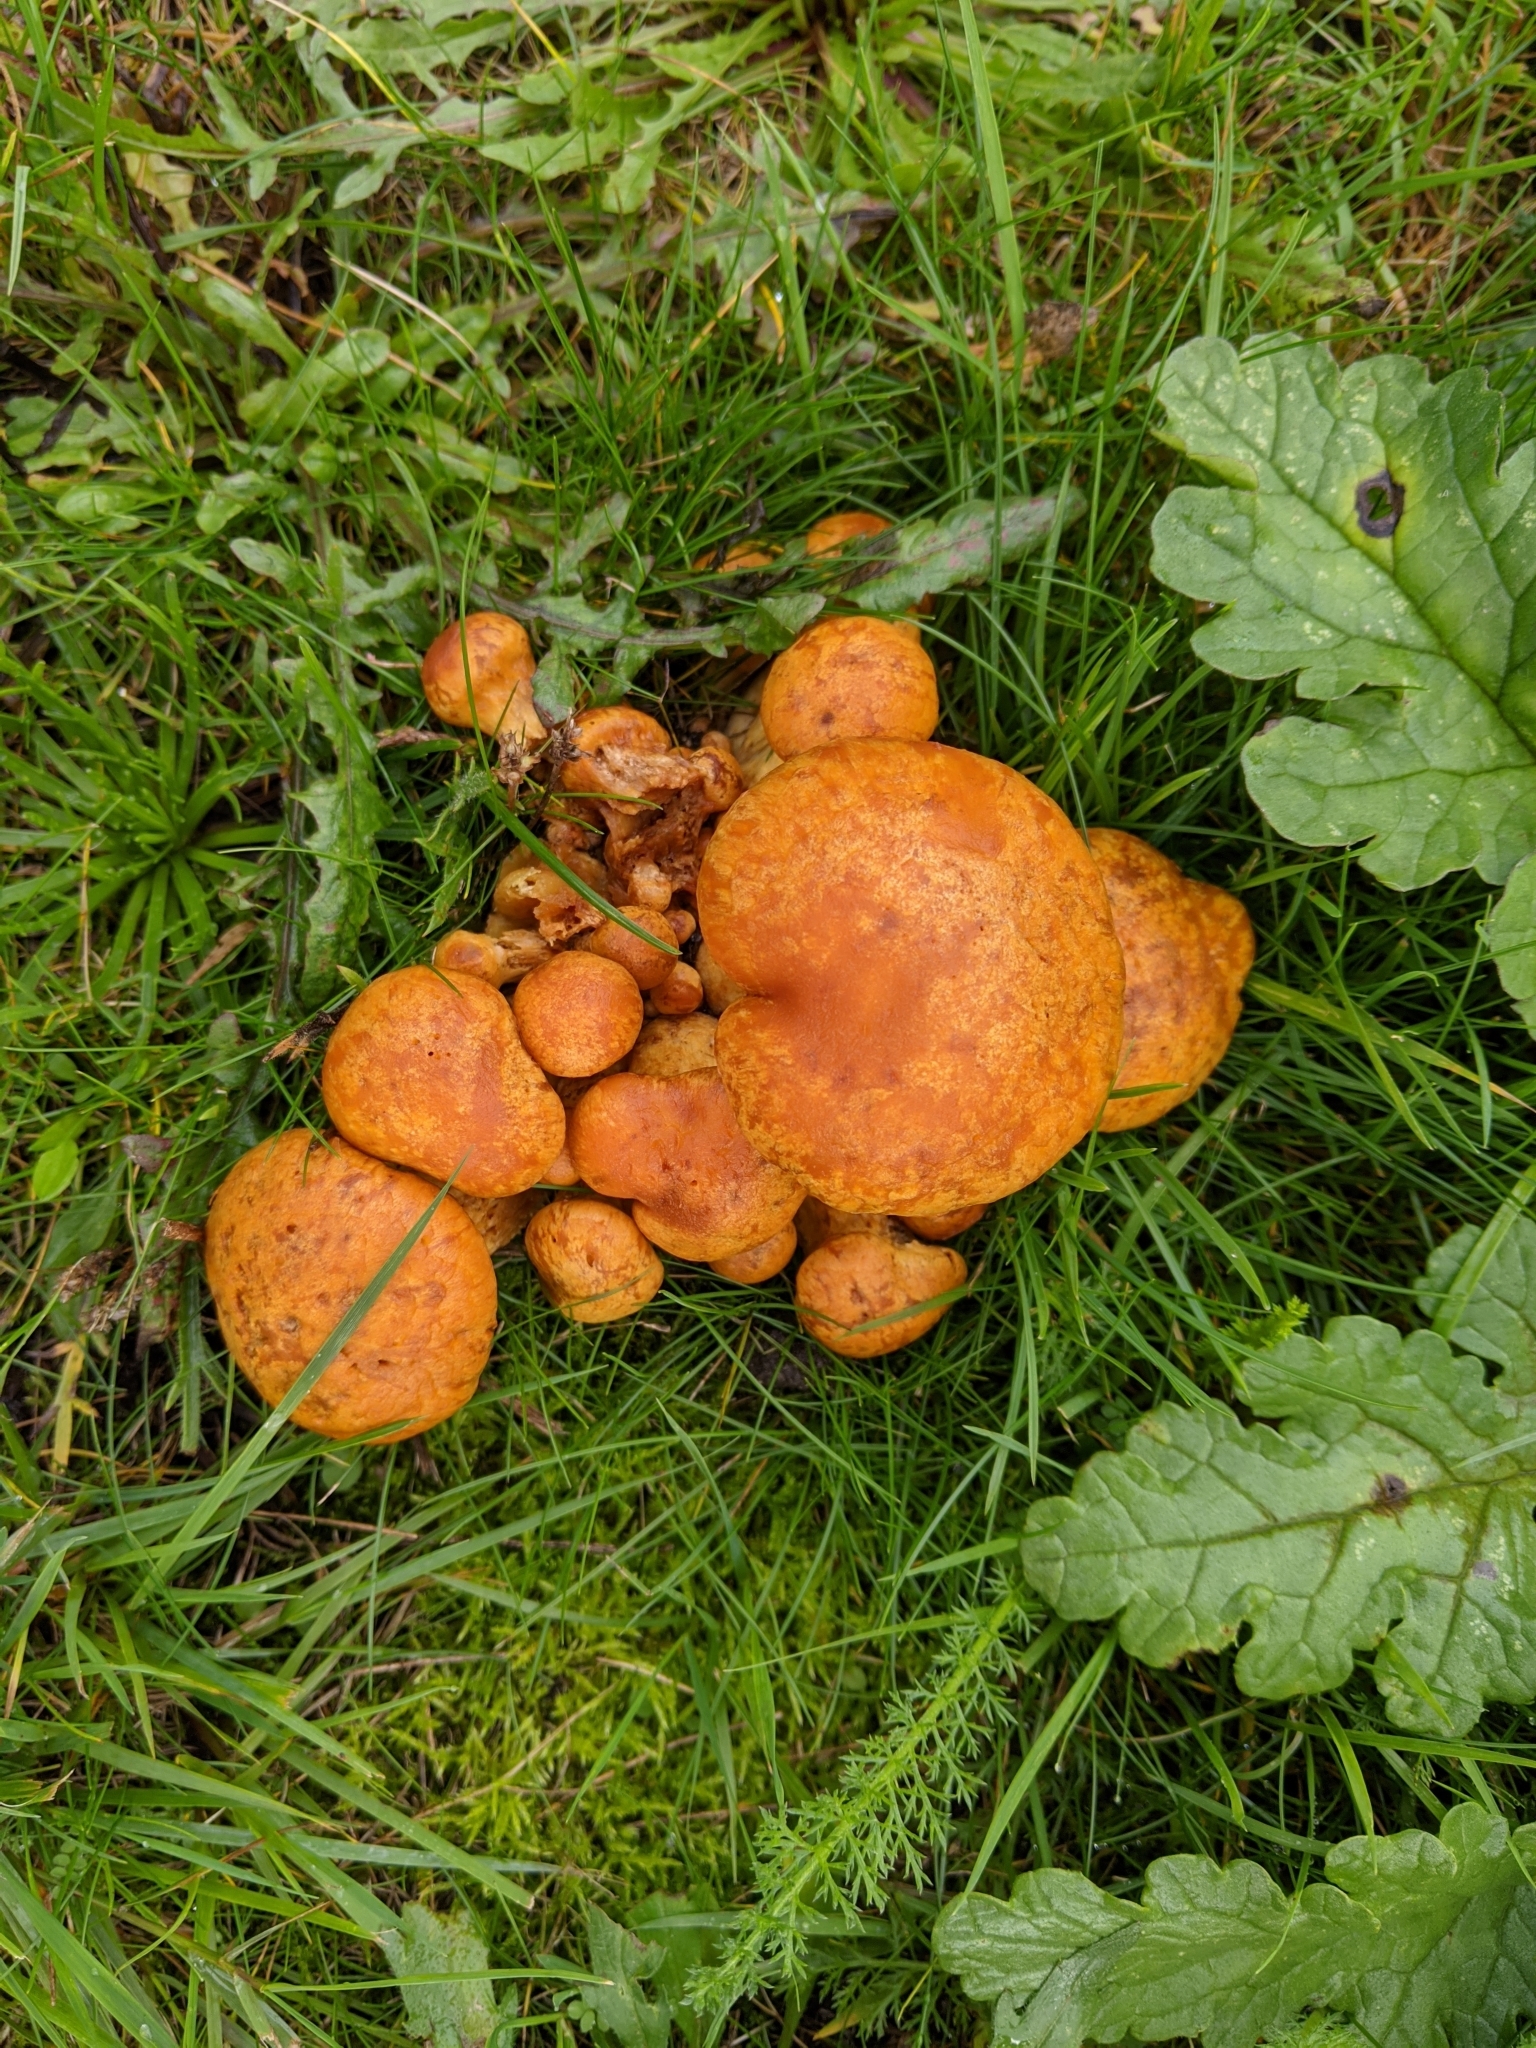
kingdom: Fungi
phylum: Basidiomycota
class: Agaricomycetes
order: Agaricales
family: Hymenogastraceae
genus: Gymnopilus
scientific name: Gymnopilus junonius
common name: Spectacular rustgill
